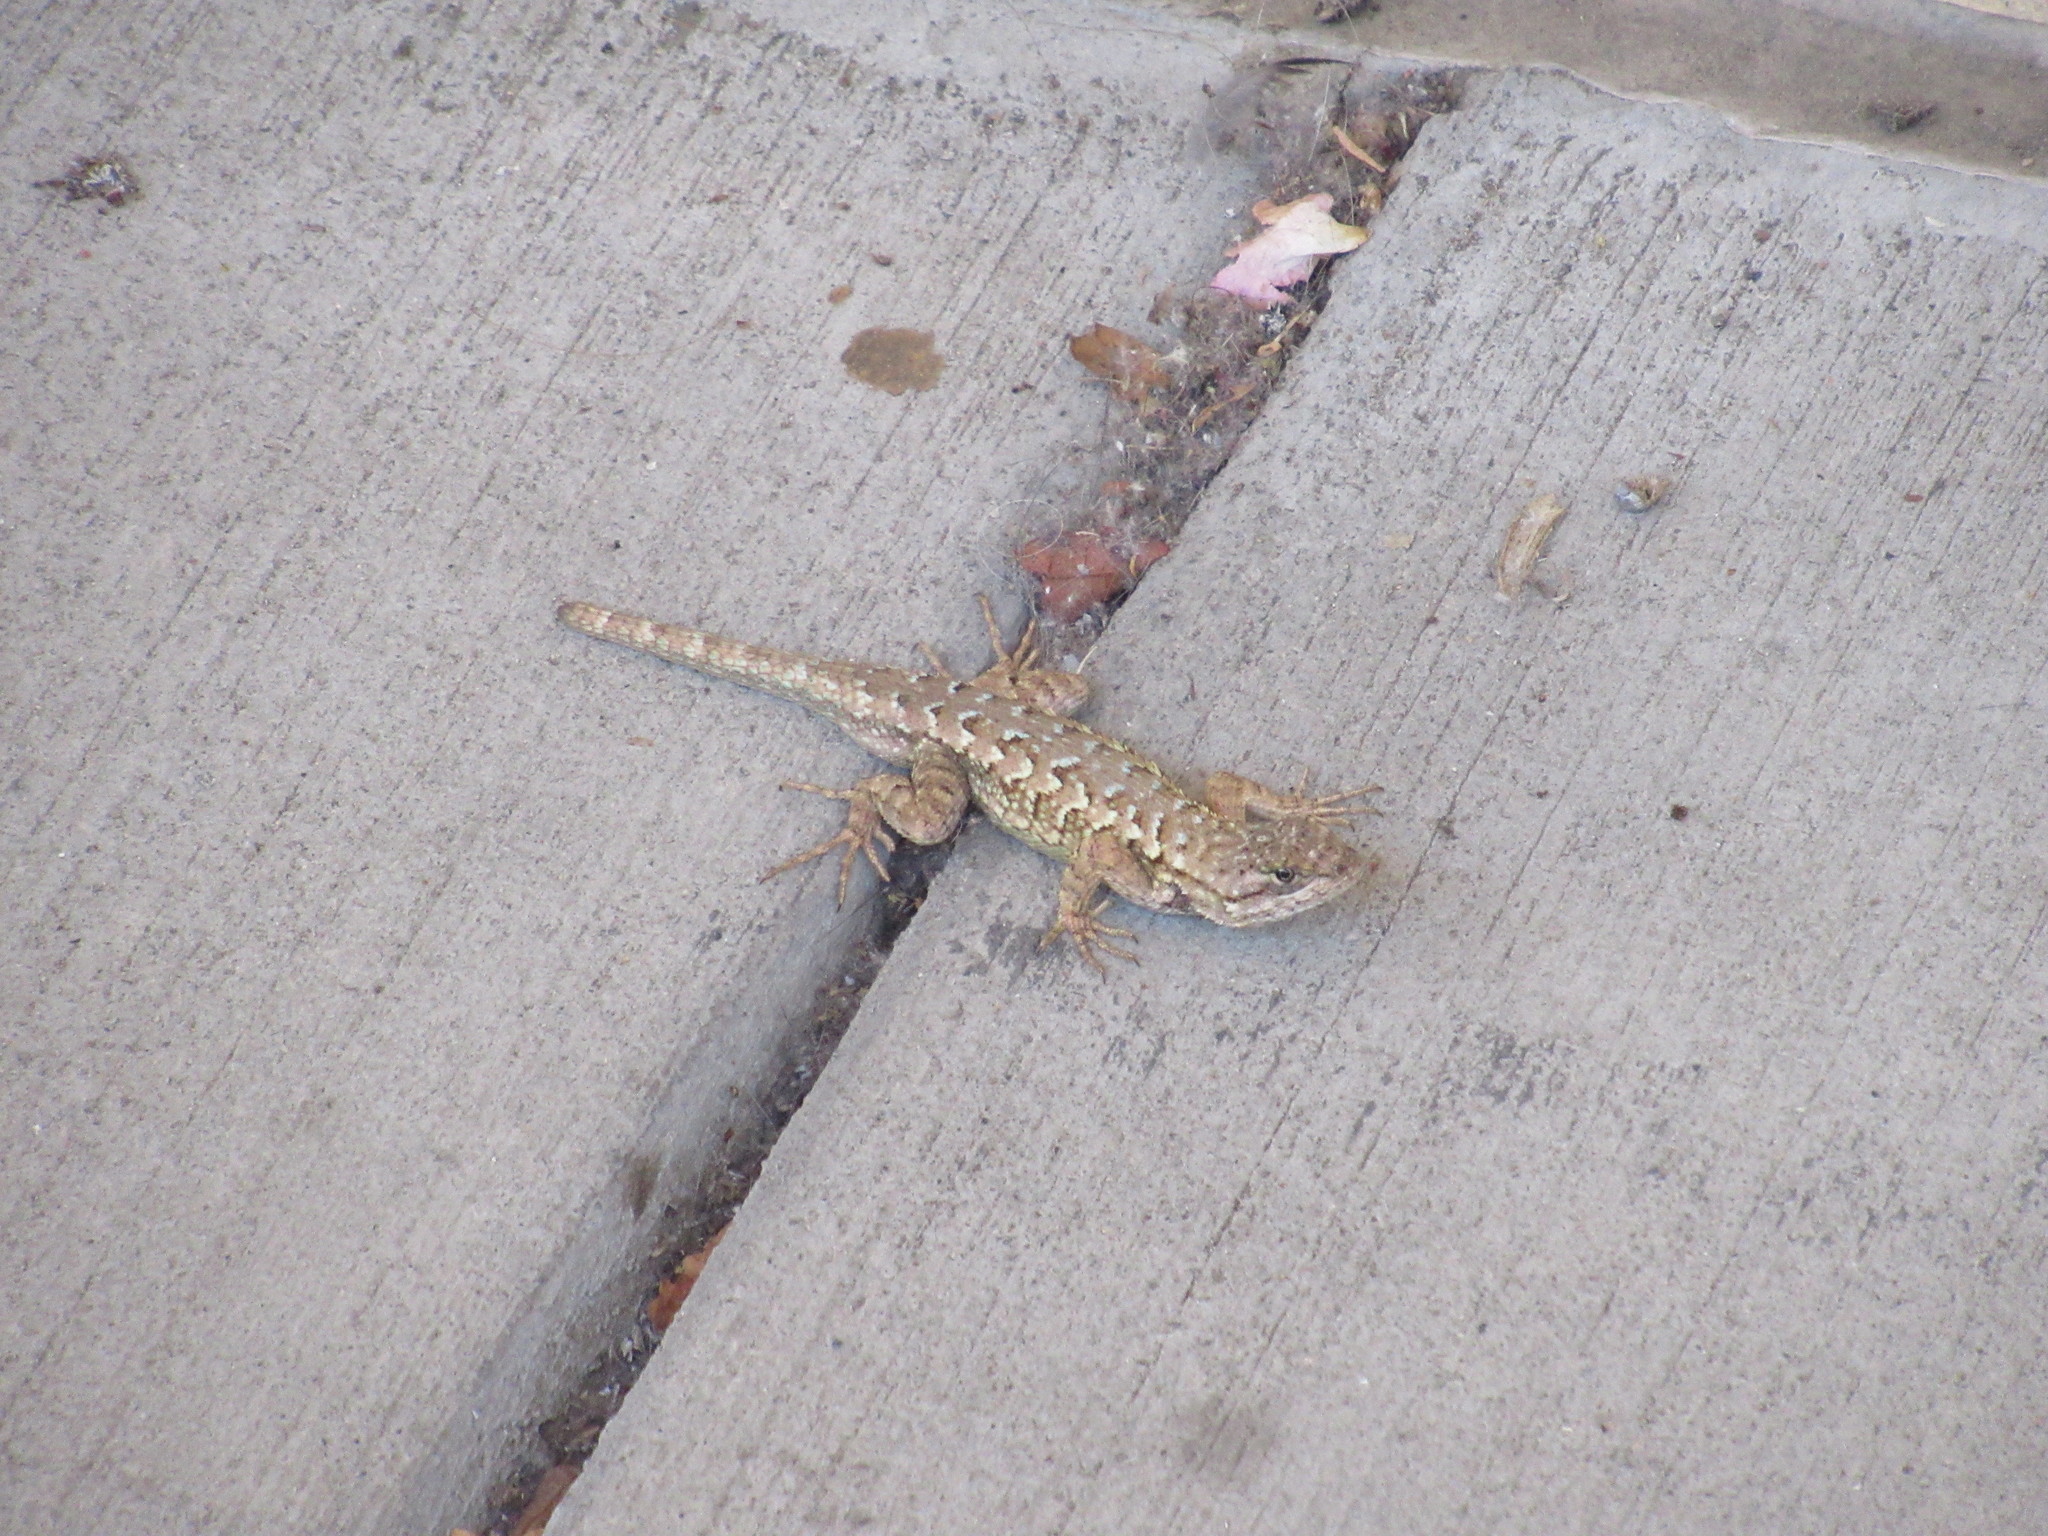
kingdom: Animalia
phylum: Chordata
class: Squamata
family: Phrynosomatidae
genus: Sceloporus
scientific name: Sceloporus occidentalis
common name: Western fence lizard
